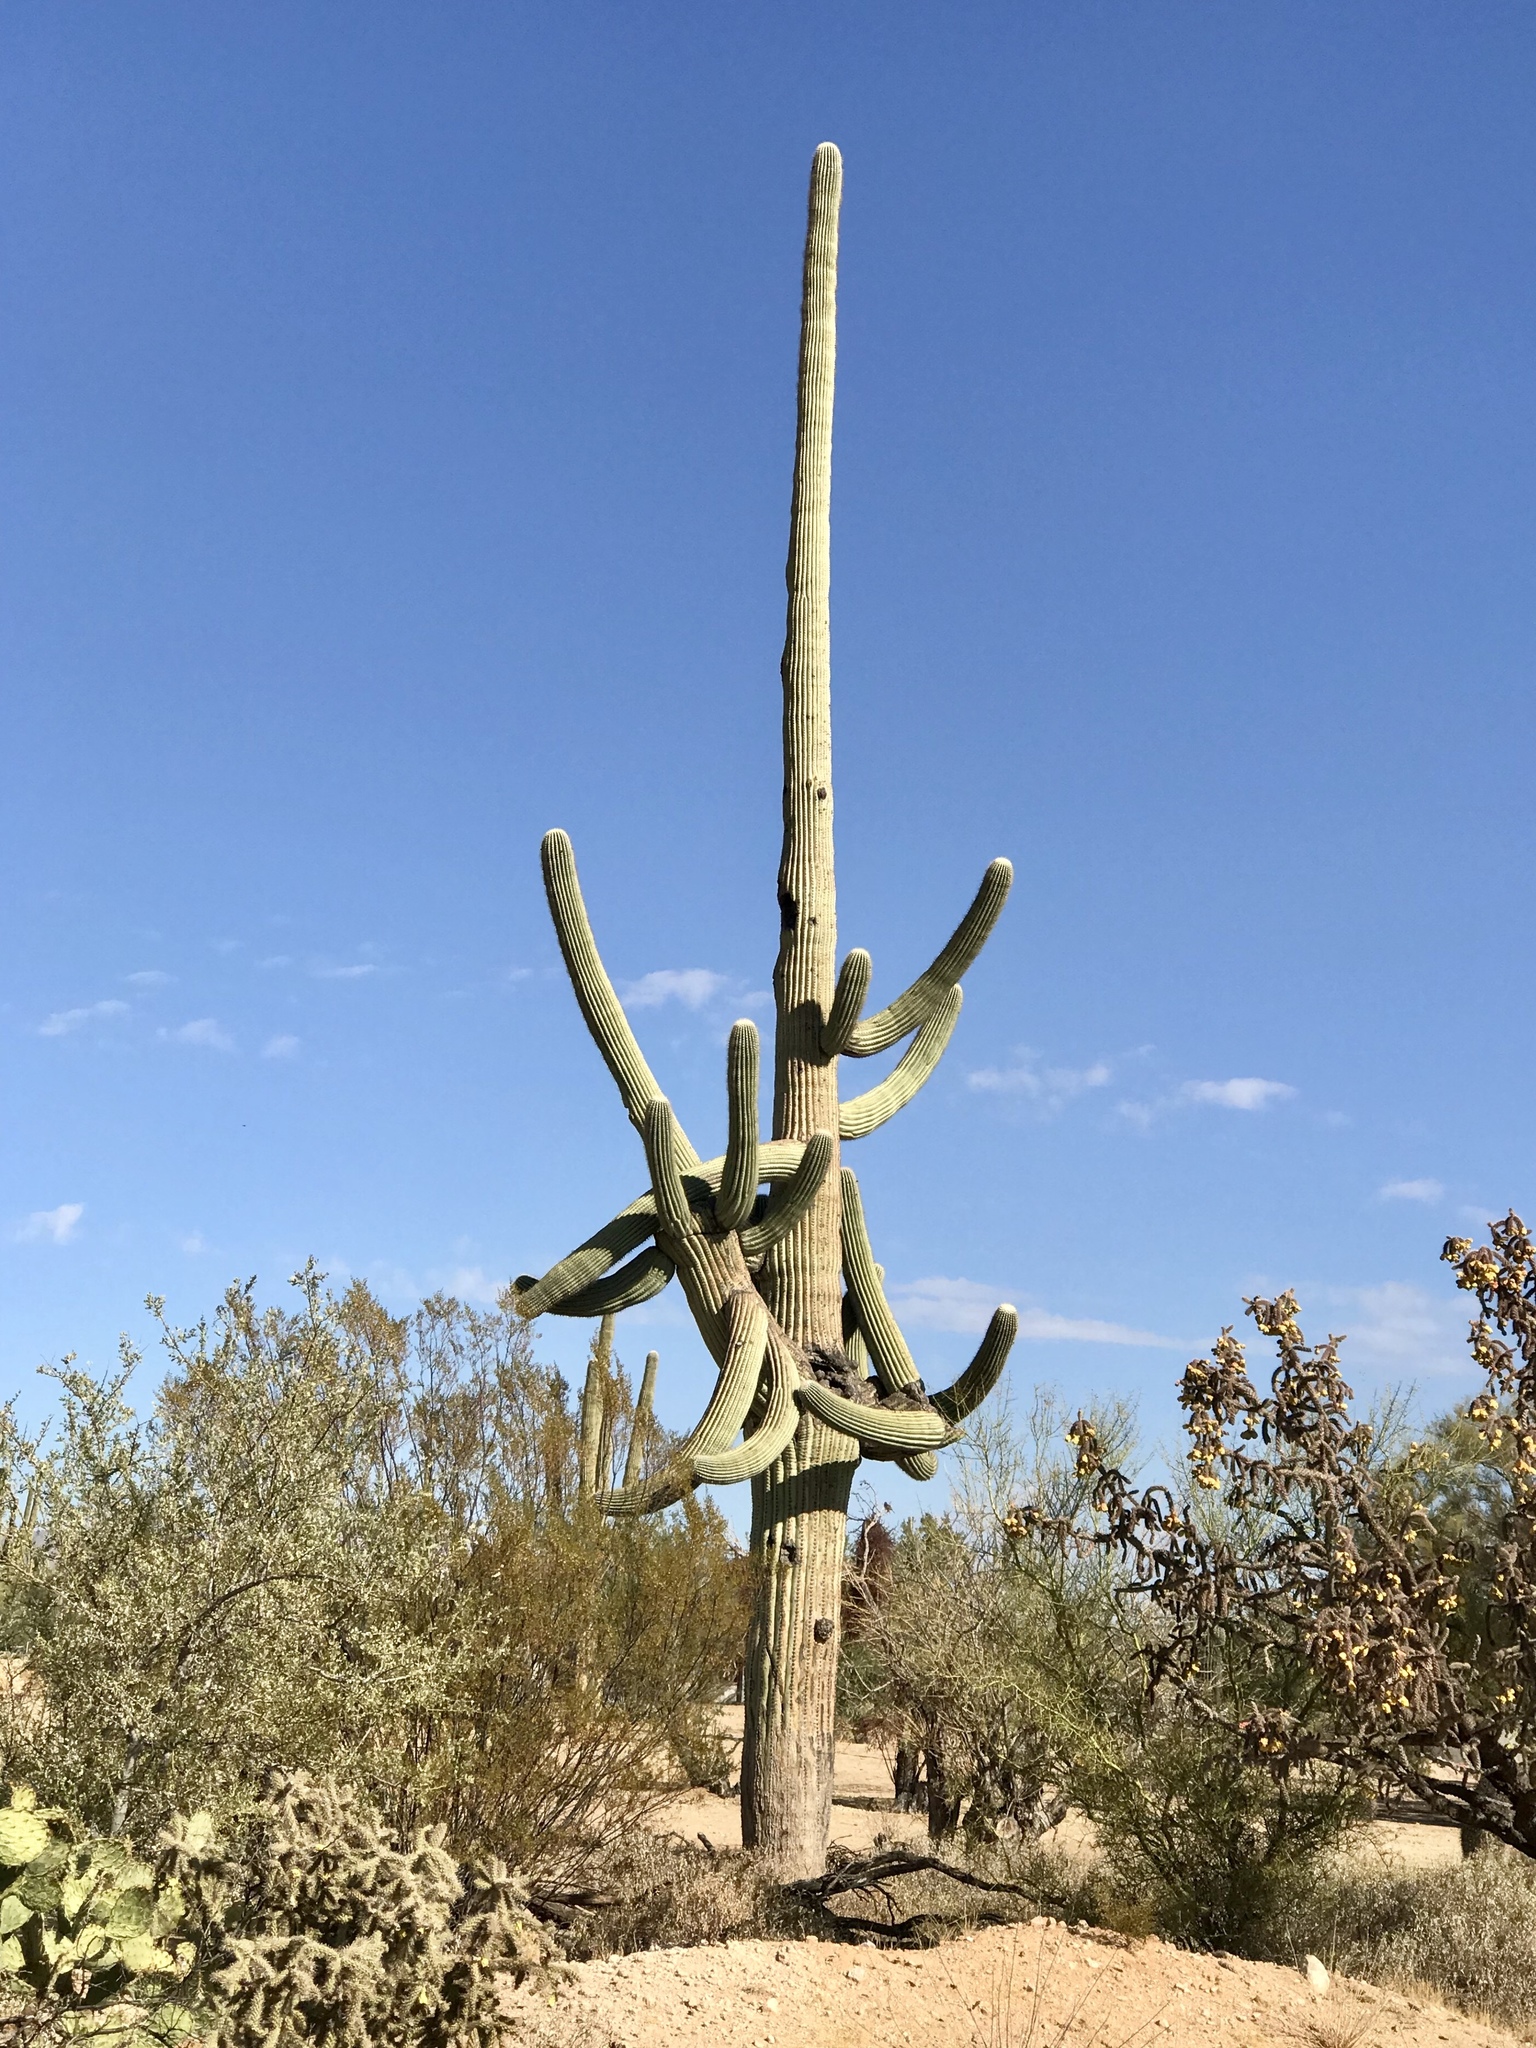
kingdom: Plantae
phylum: Tracheophyta
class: Magnoliopsida
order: Caryophyllales
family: Cactaceae
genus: Carnegiea
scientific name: Carnegiea gigantea
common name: Saguaro
